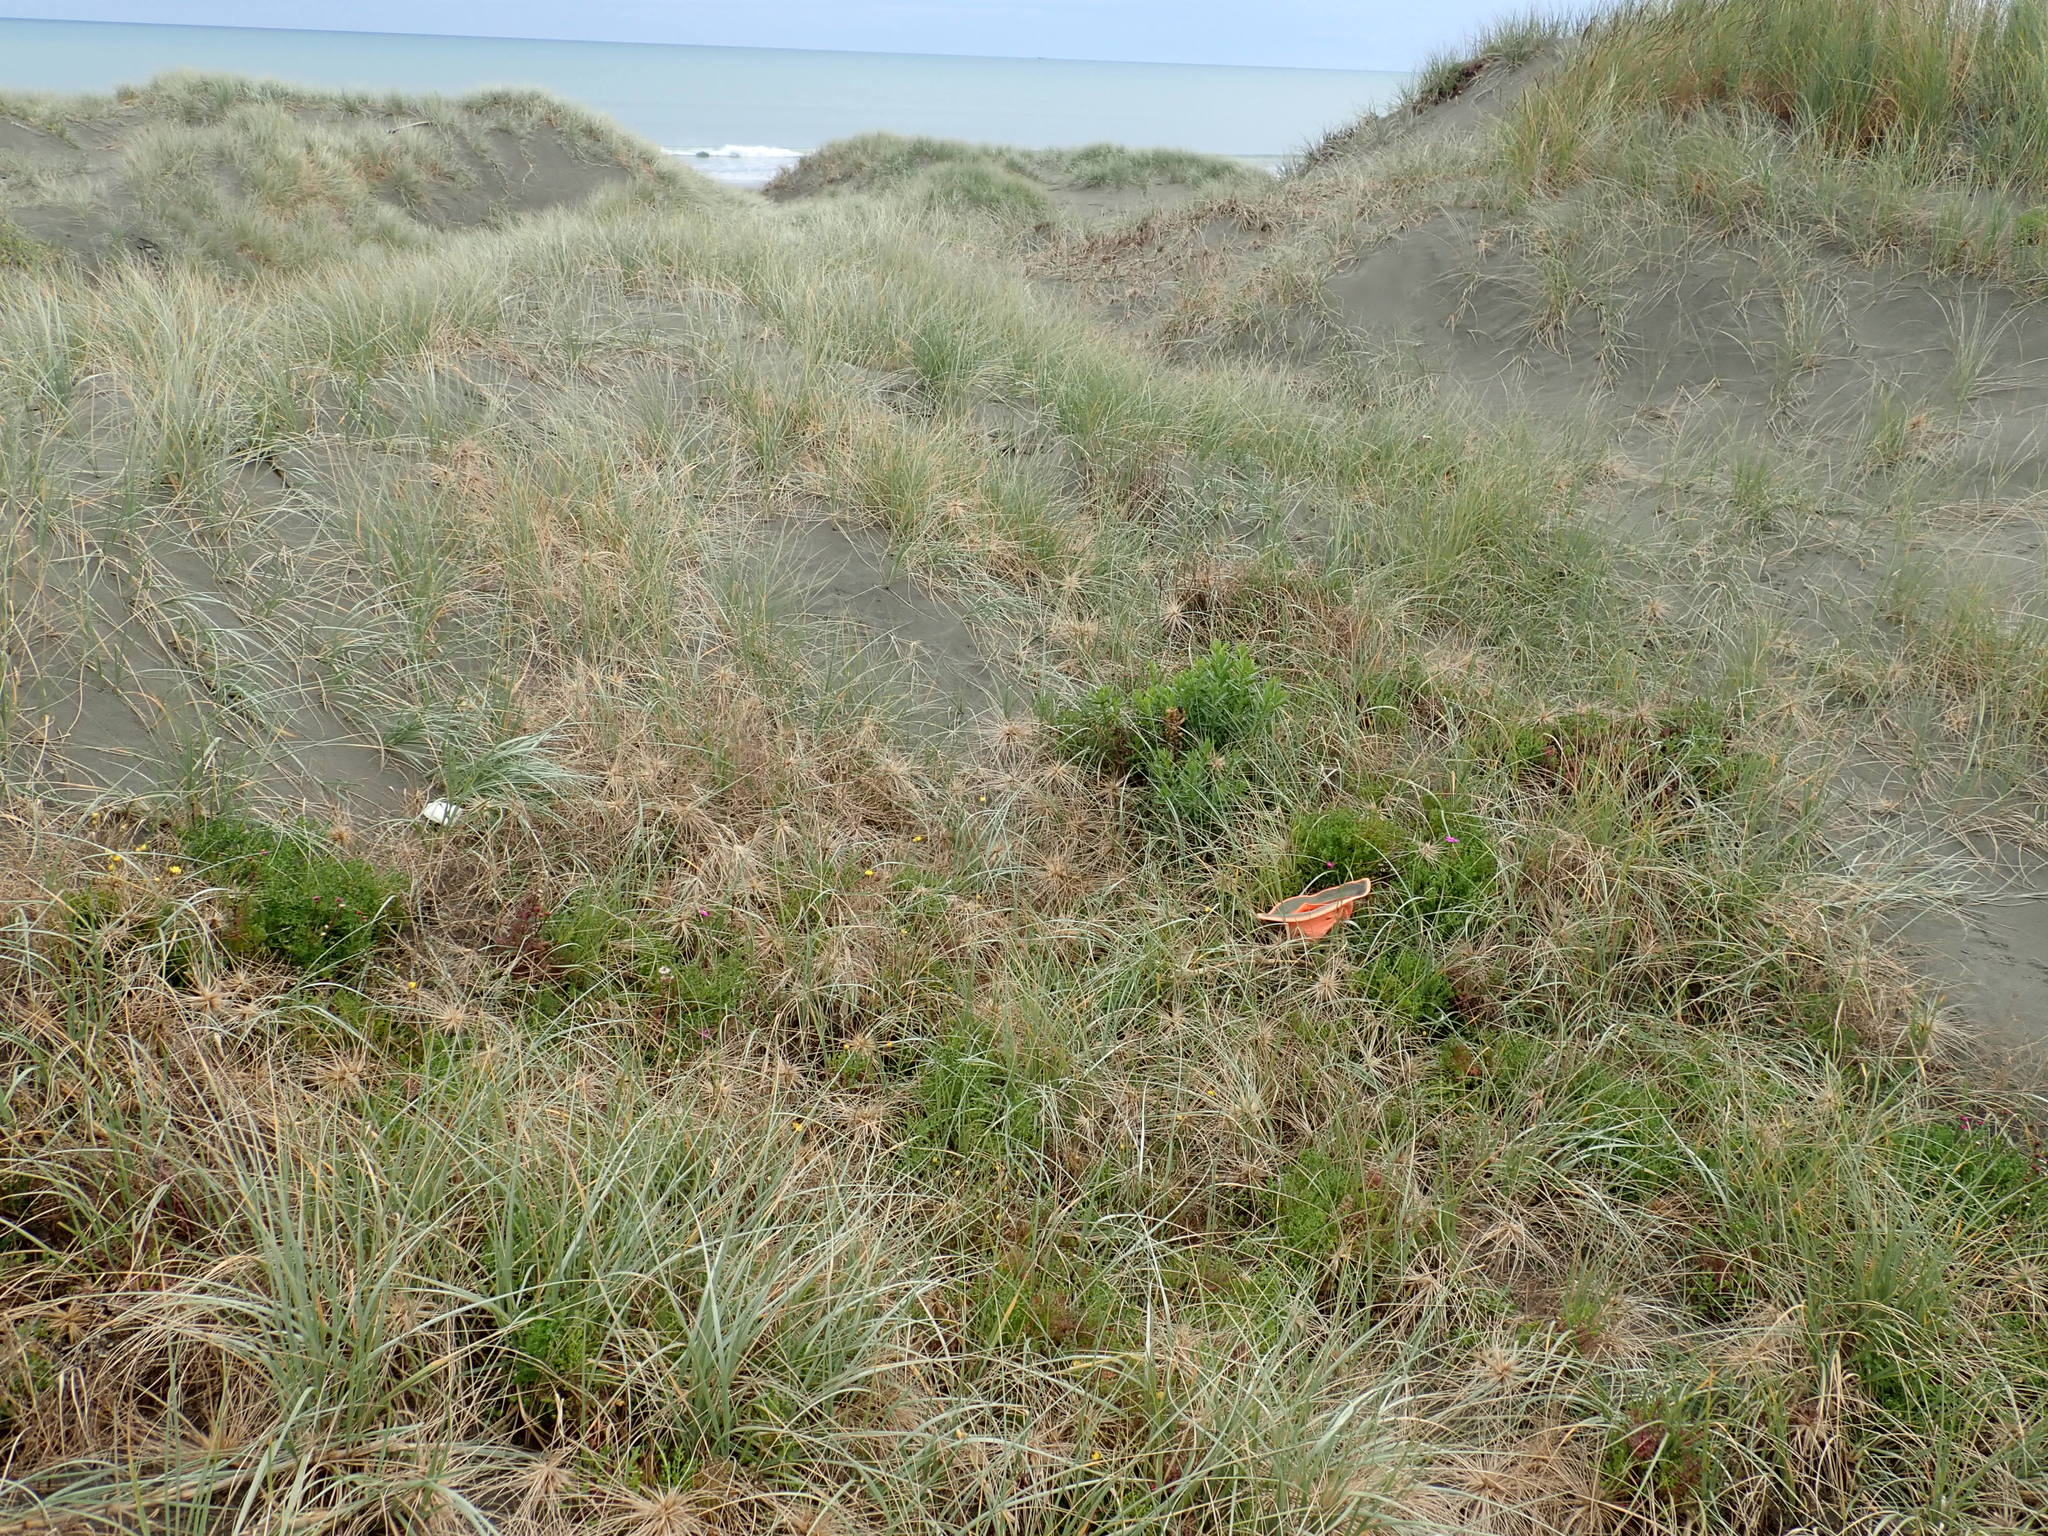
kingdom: Plantae
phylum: Tracheophyta
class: Magnoliopsida
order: Asterales
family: Asteraceae
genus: Senecio
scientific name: Senecio elegans
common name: Purple groundsel
